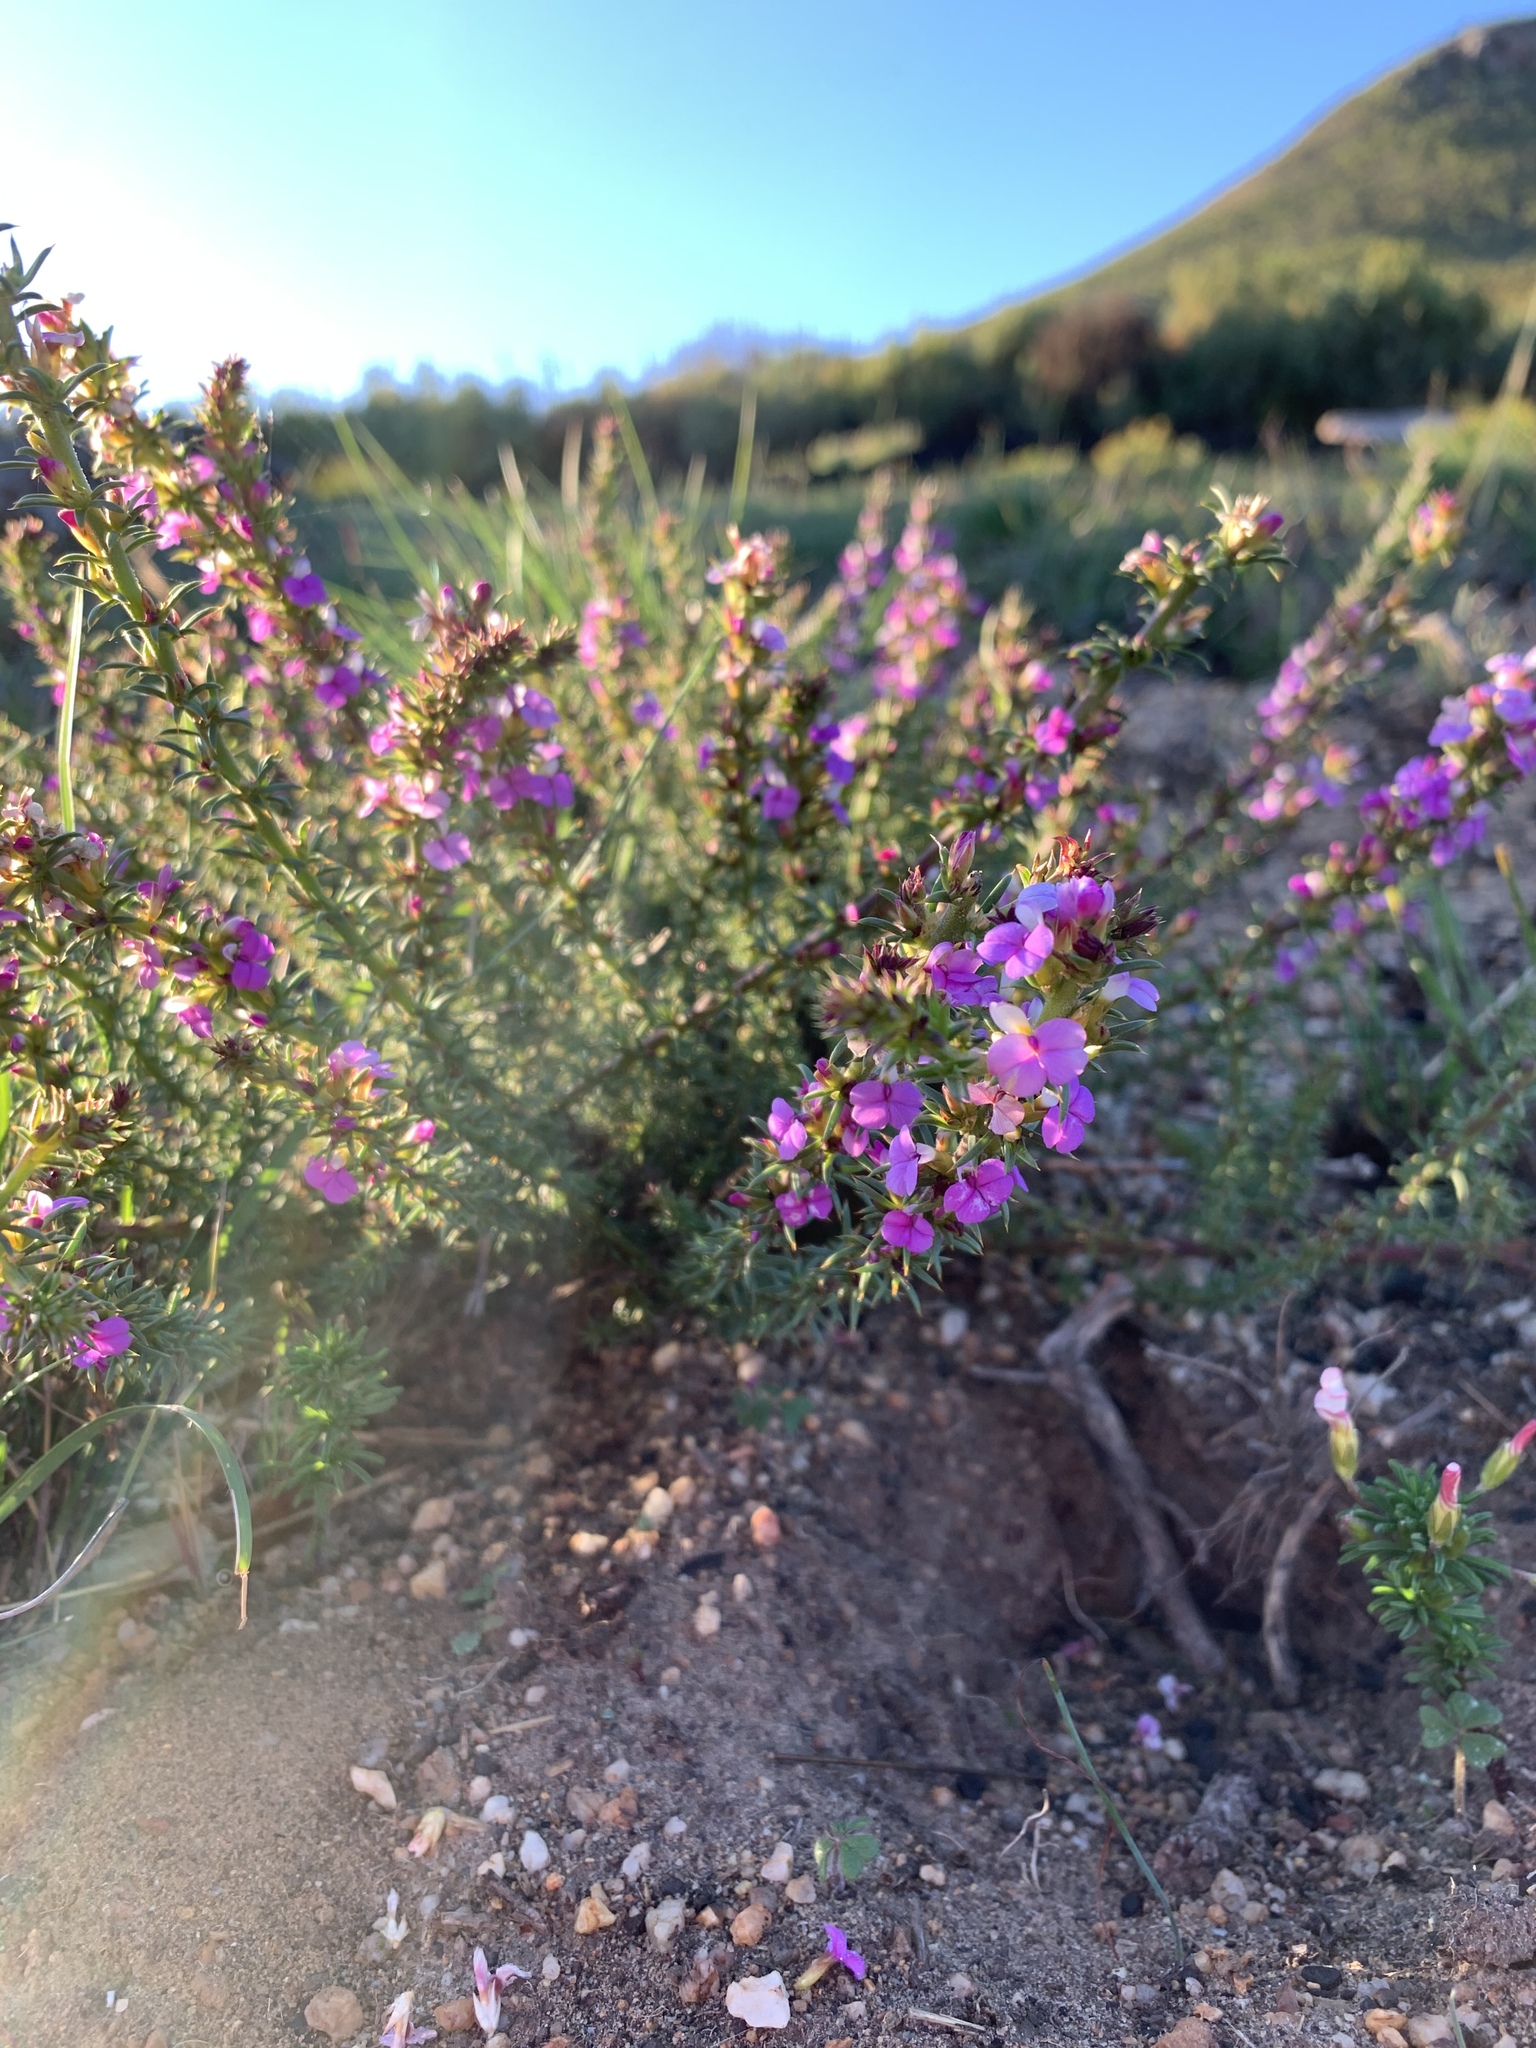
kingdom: Plantae
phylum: Tracheophyta
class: Magnoliopsida
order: Fabales
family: Polygalaceae
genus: Muraltia
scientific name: Muraltia heisteria
